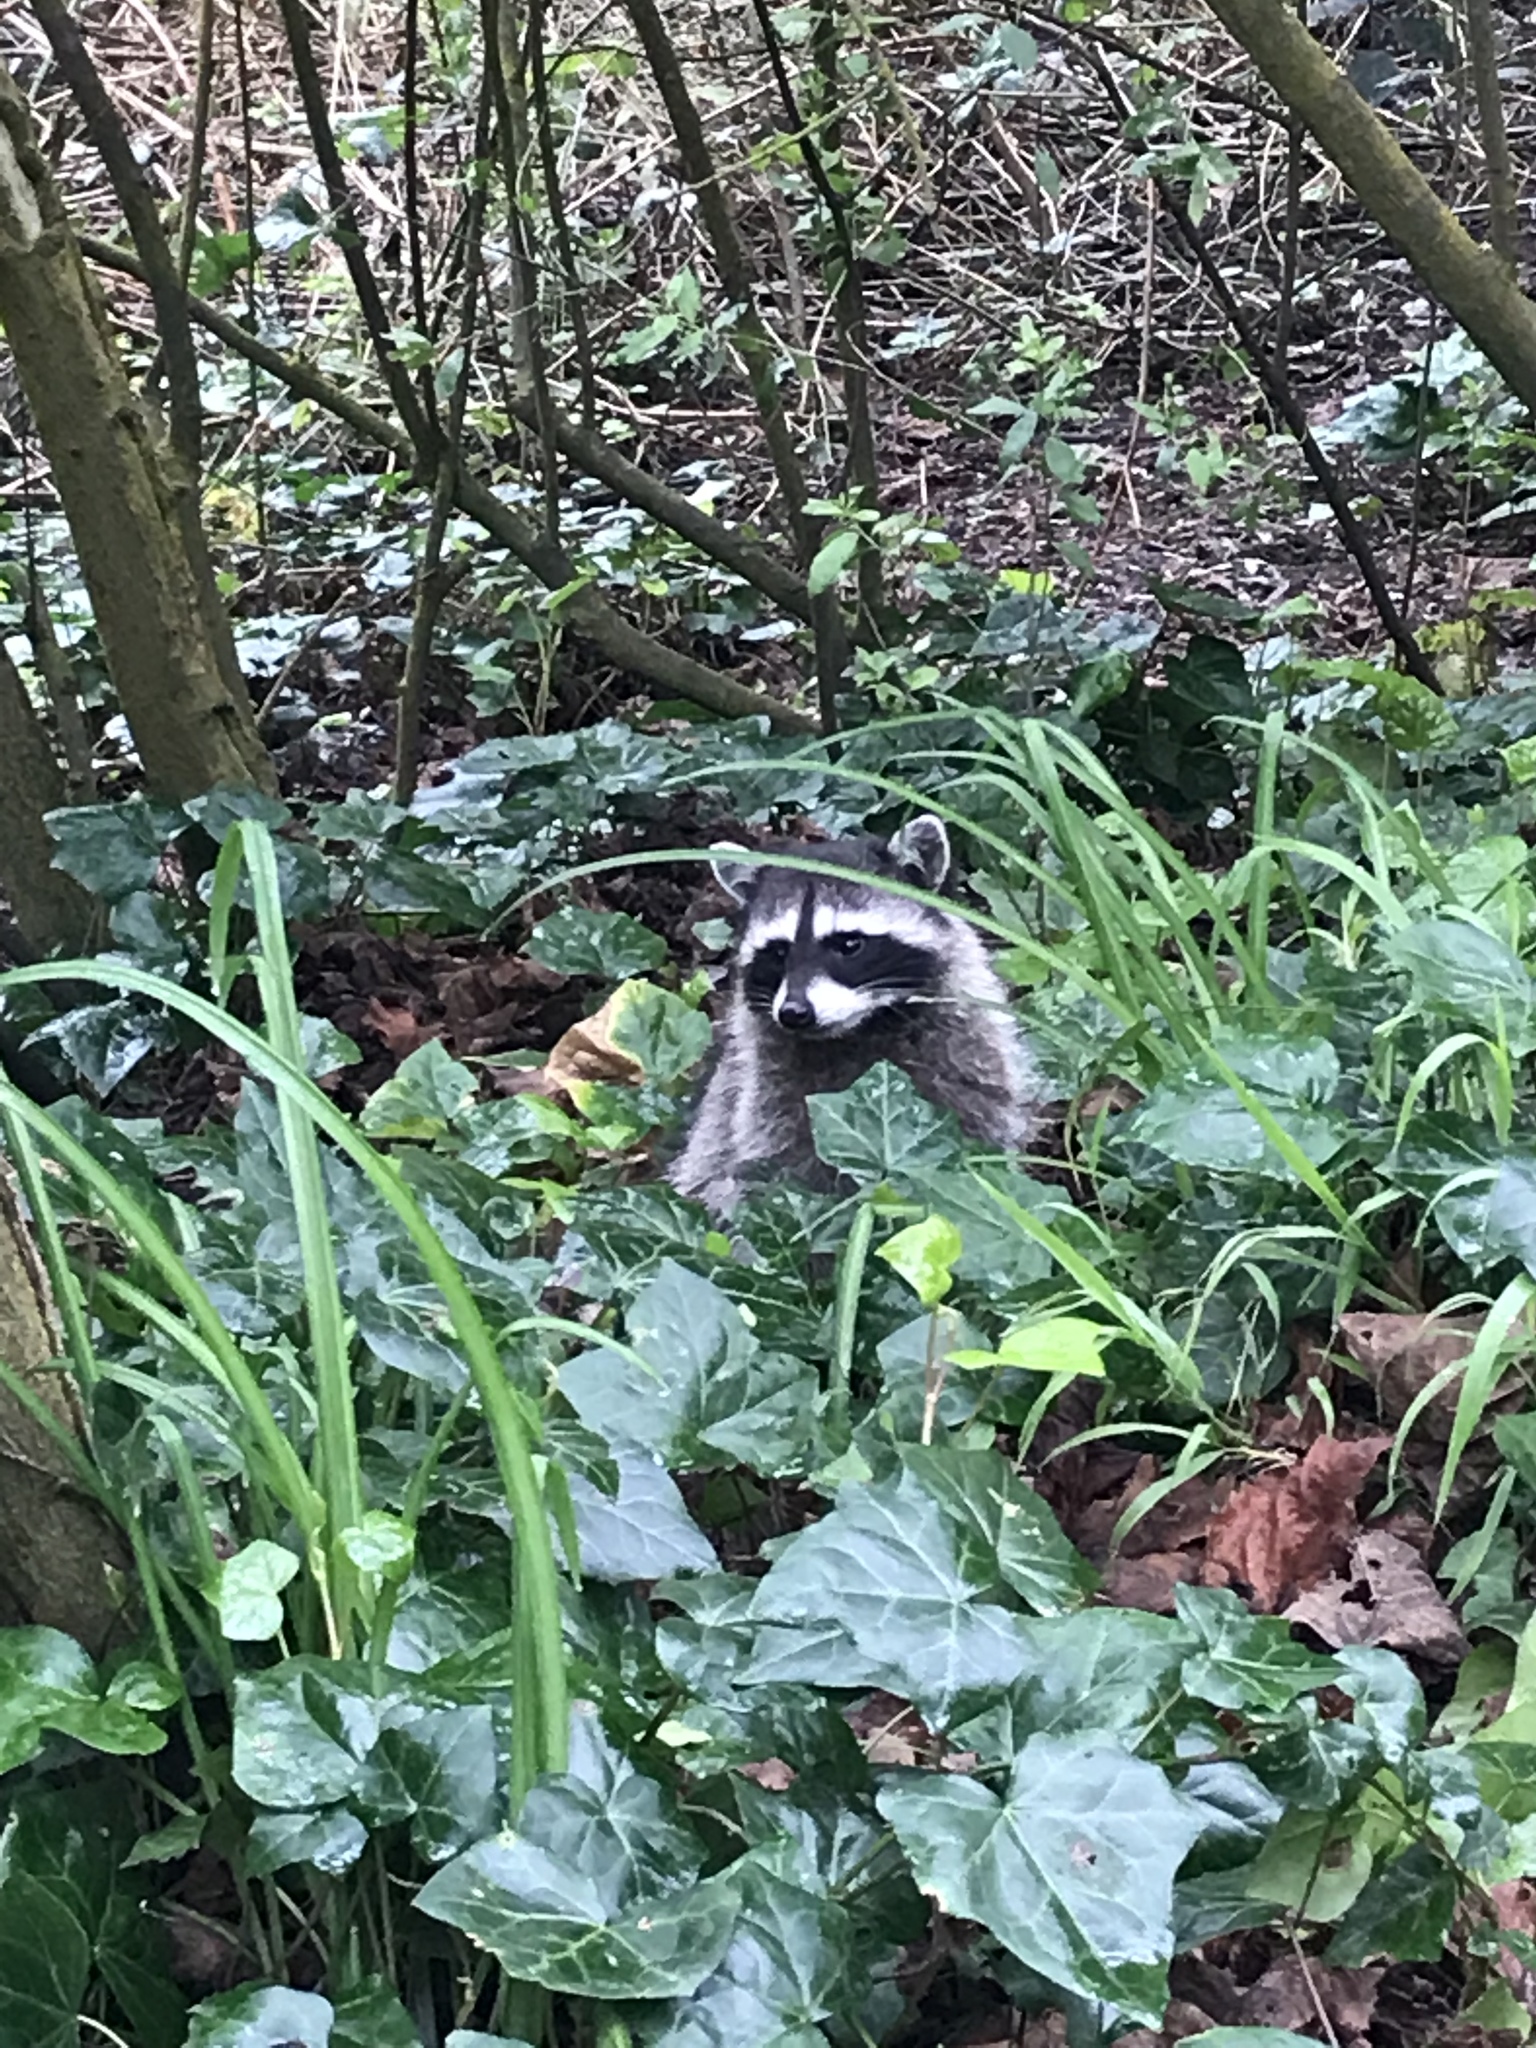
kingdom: Animalia
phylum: Chordata
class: Mammalia
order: Carnivora
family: Procyonidae
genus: Procyon
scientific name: Procyon lotor
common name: Raccoon
